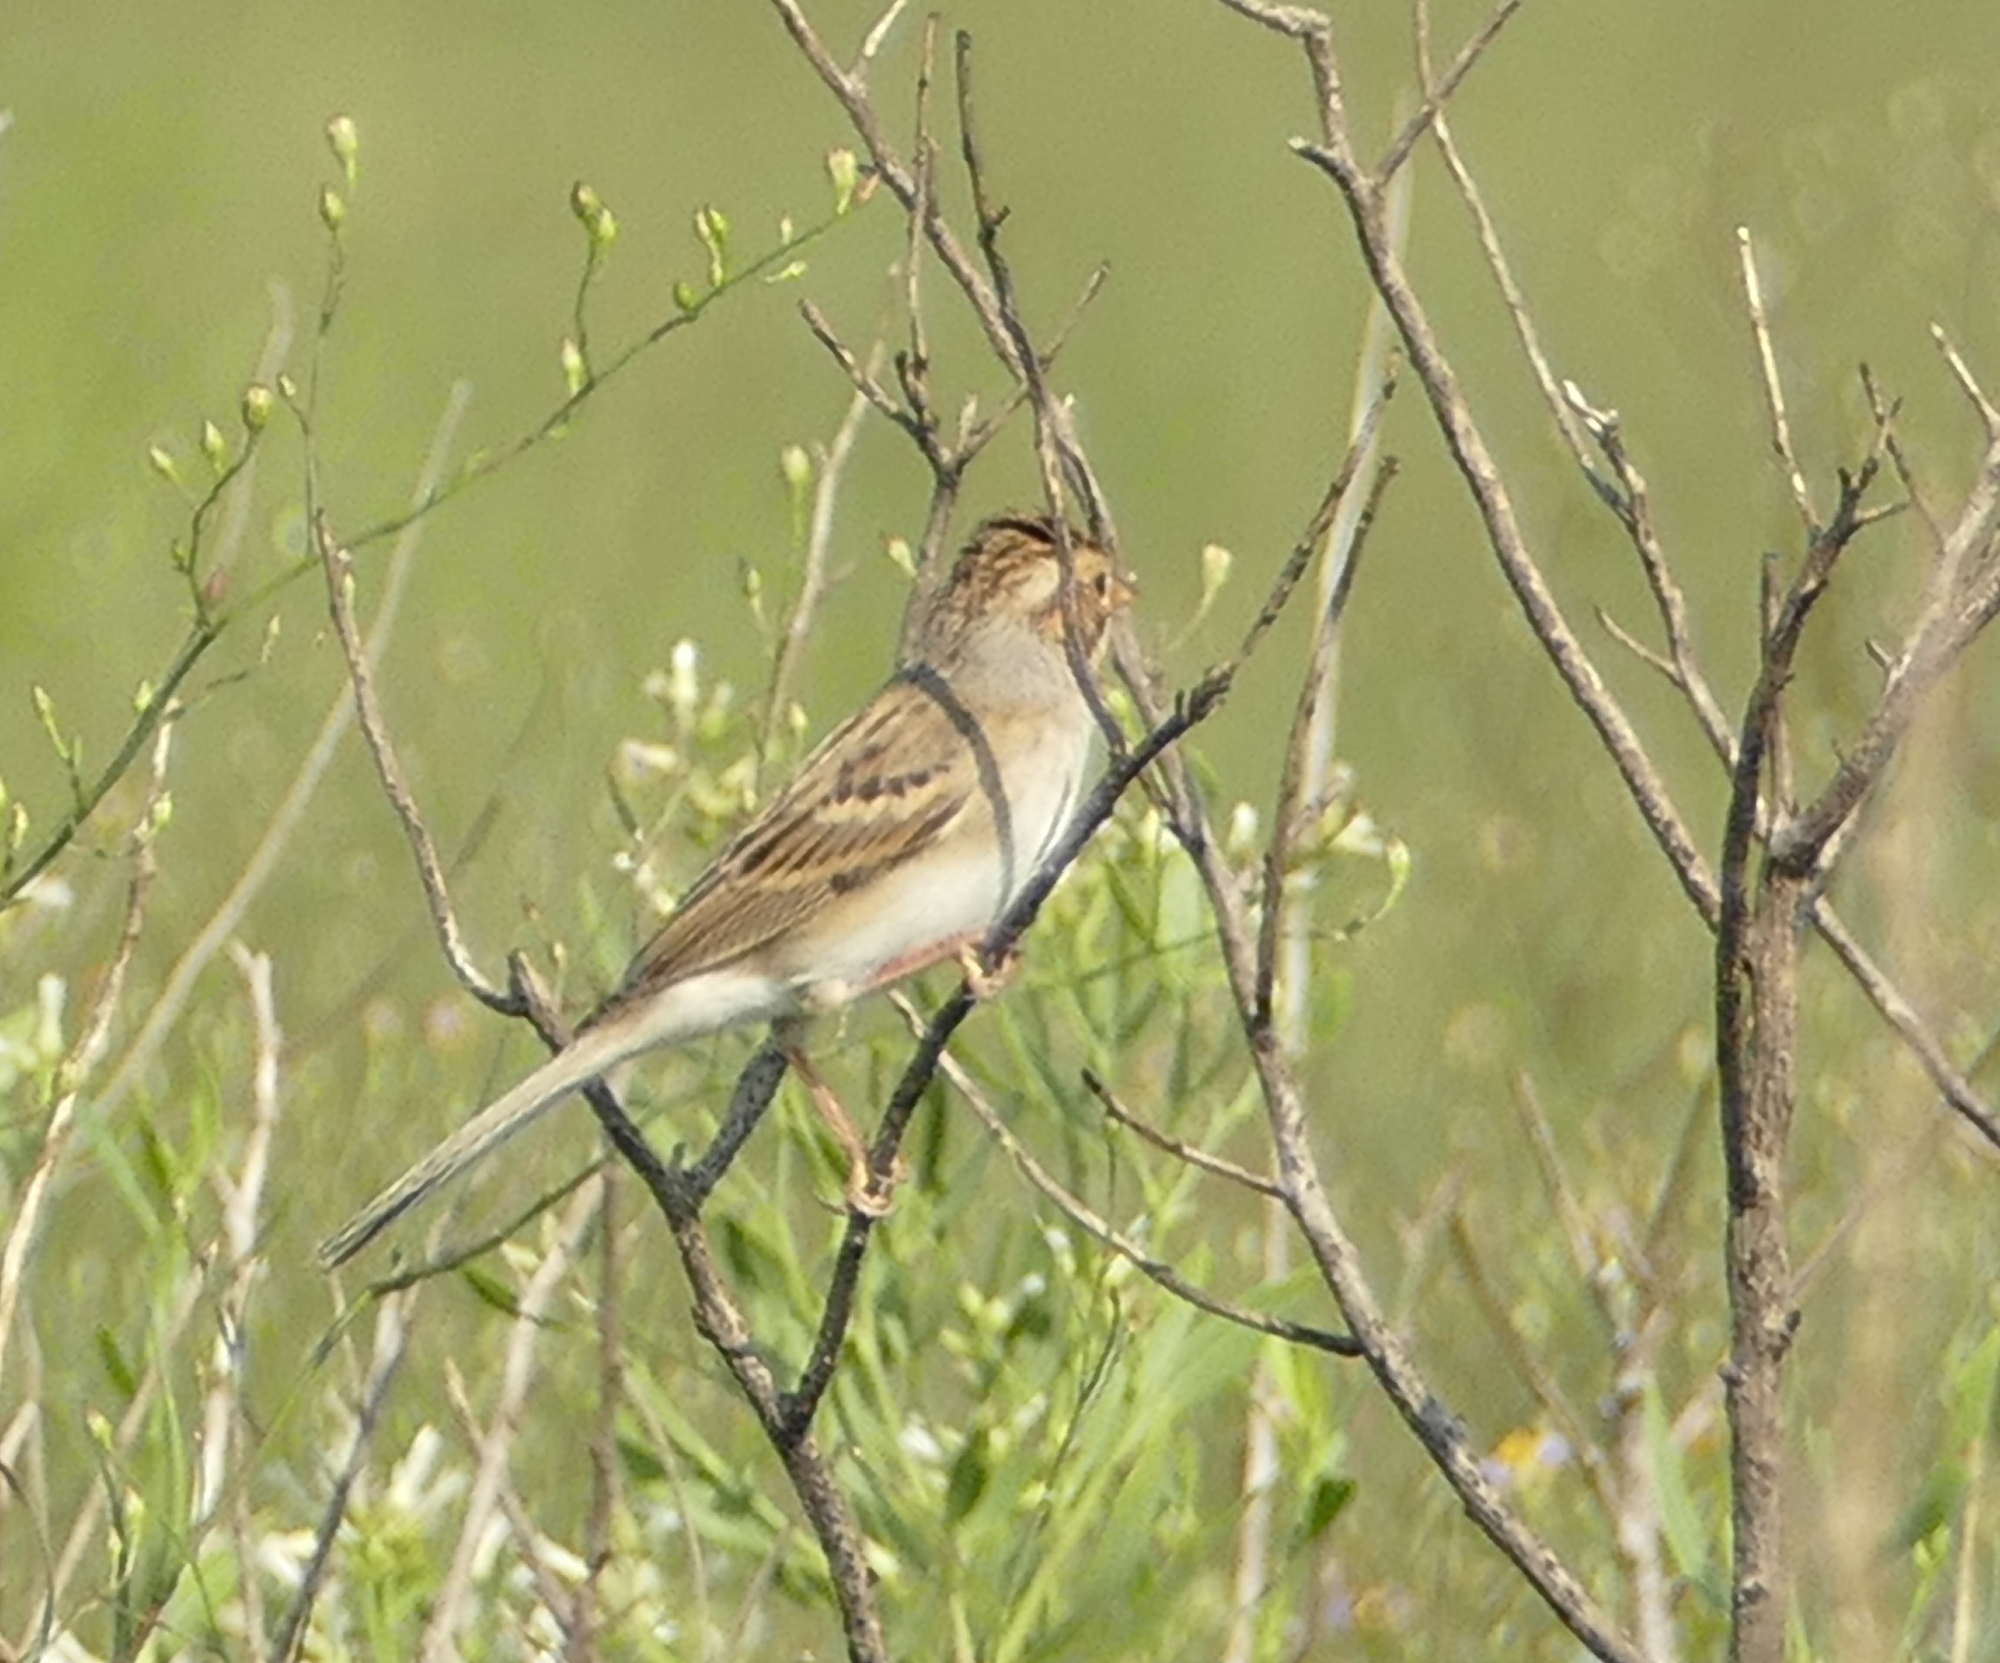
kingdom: Animalia
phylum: Chordata
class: Aves
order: Passeriformes
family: Passerellidae
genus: Spizella
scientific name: Spizella breweri
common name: Brewer's sparrow
